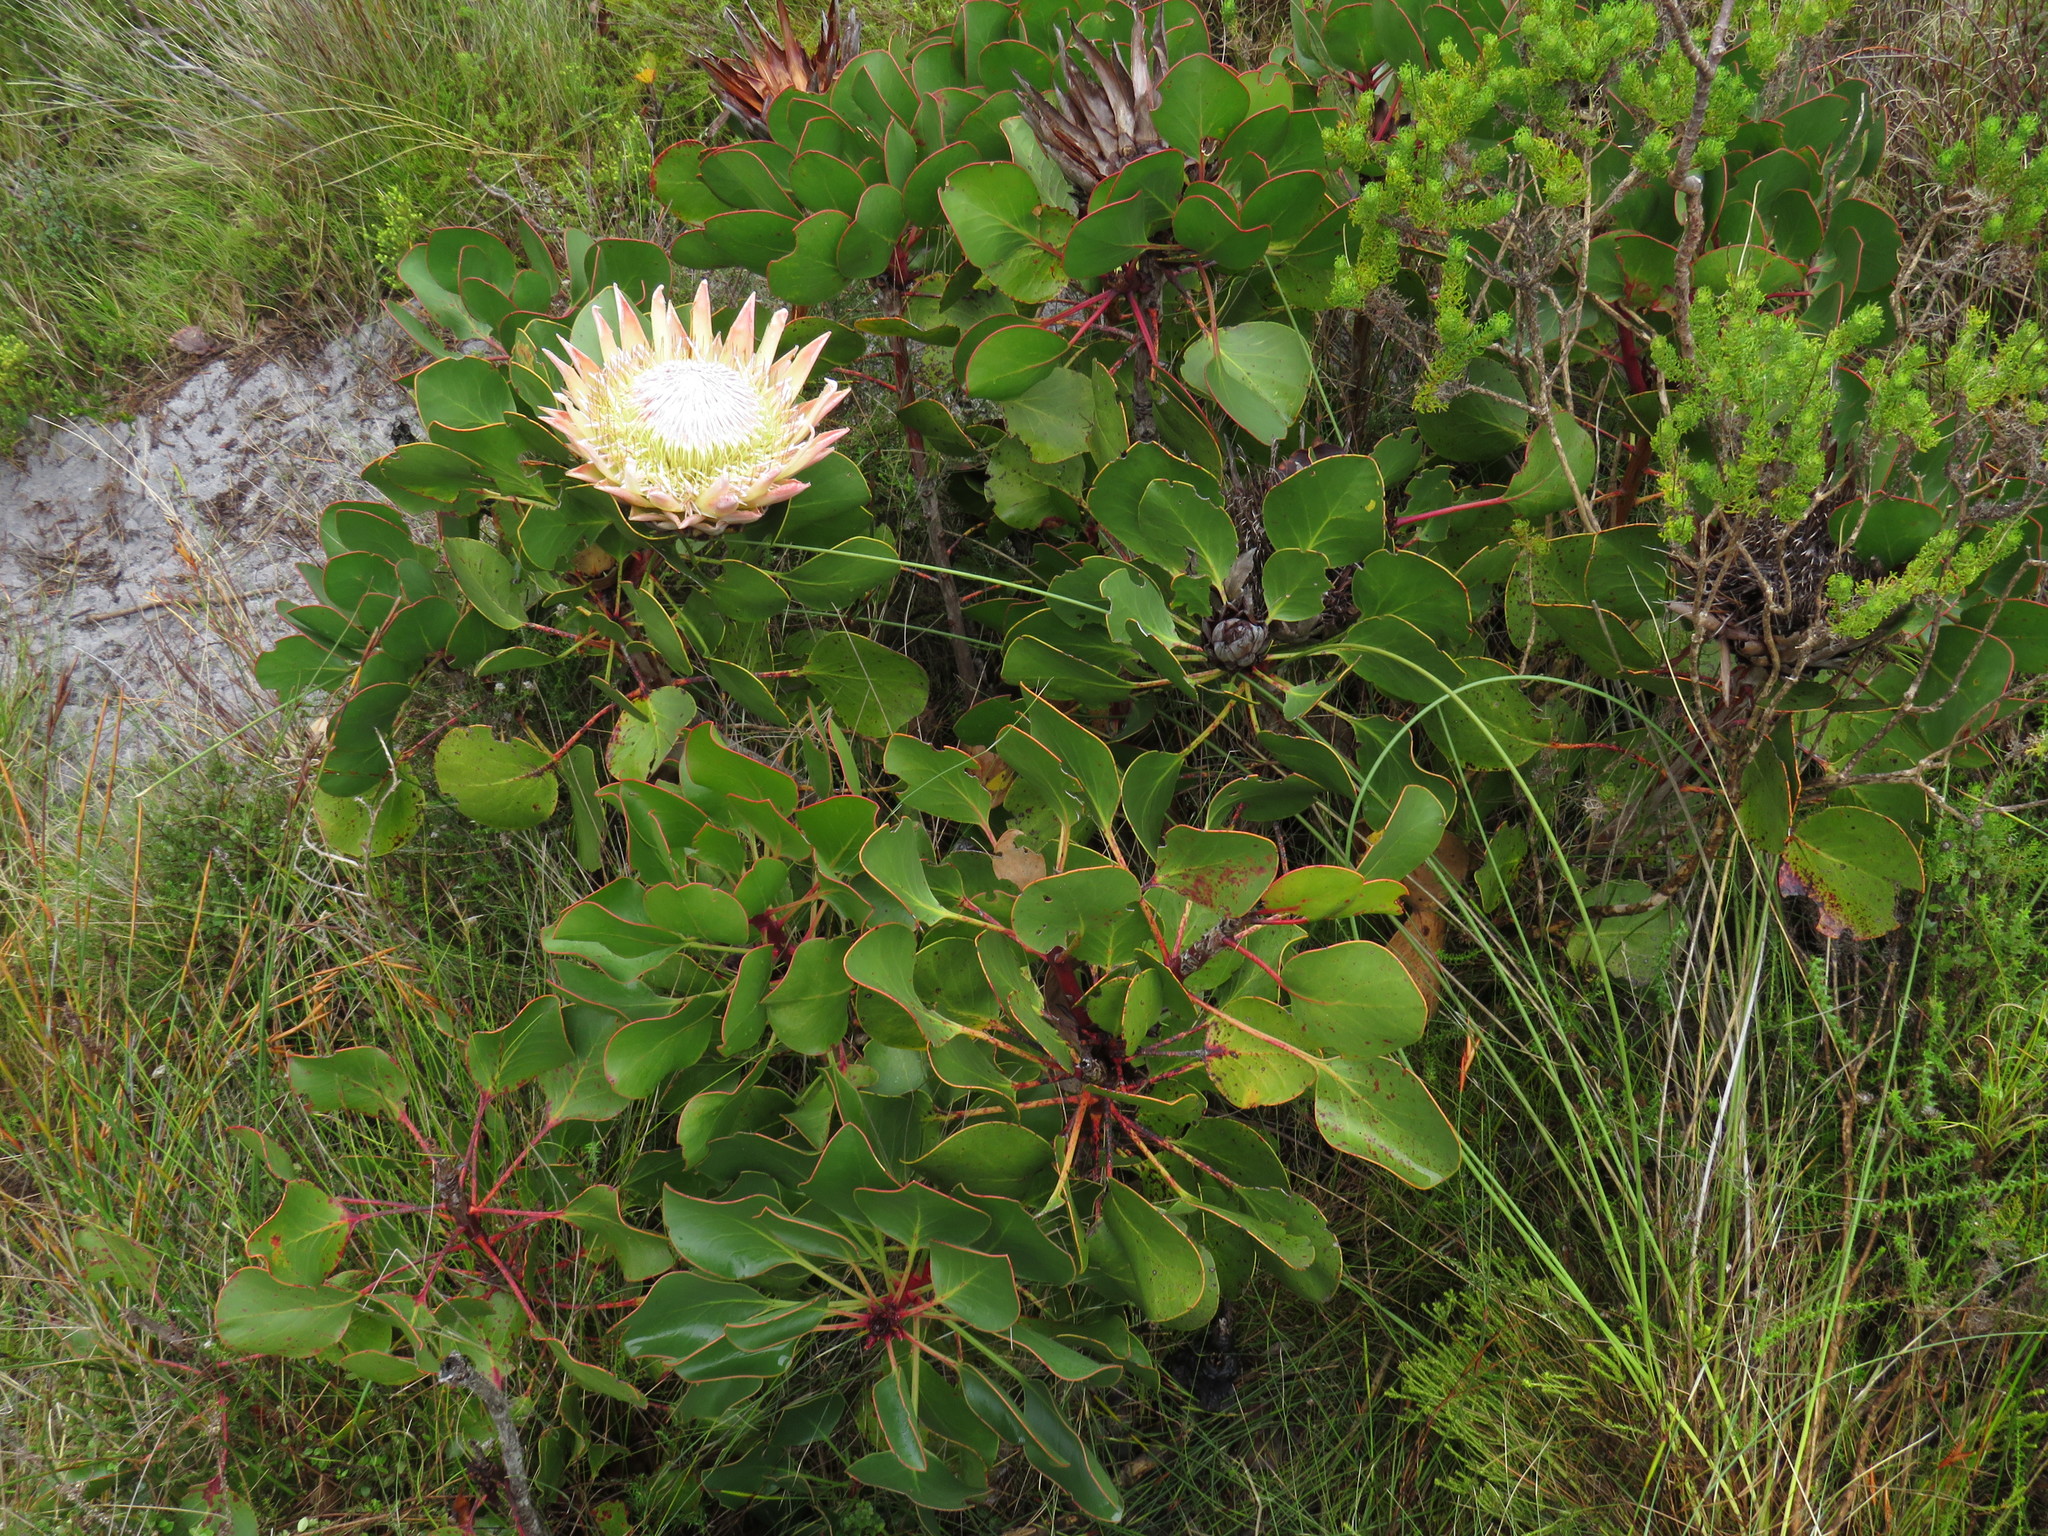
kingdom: Plantae
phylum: Tracheophyta
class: Magnoliopsida
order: Proteales
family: Proteaceae
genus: Protea
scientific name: Protea cynaroides
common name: King protea
